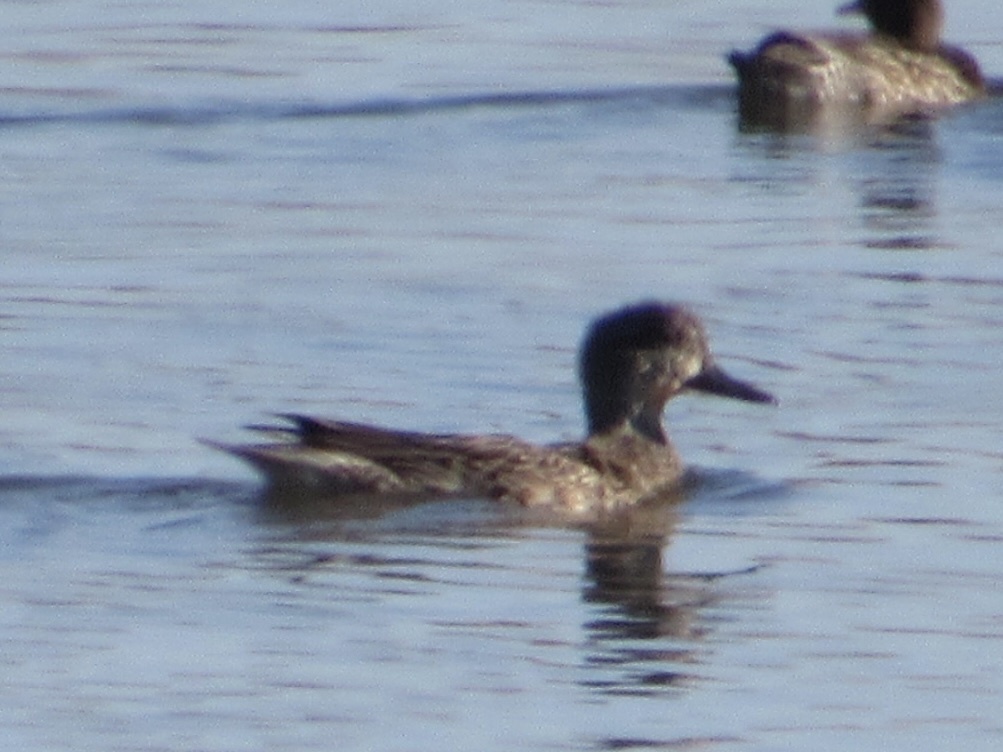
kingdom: Animalia
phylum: Chordata
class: Aves
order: Anseriformes
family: Anatidae
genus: Anas
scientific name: Anas crecca
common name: Eurasian teal
